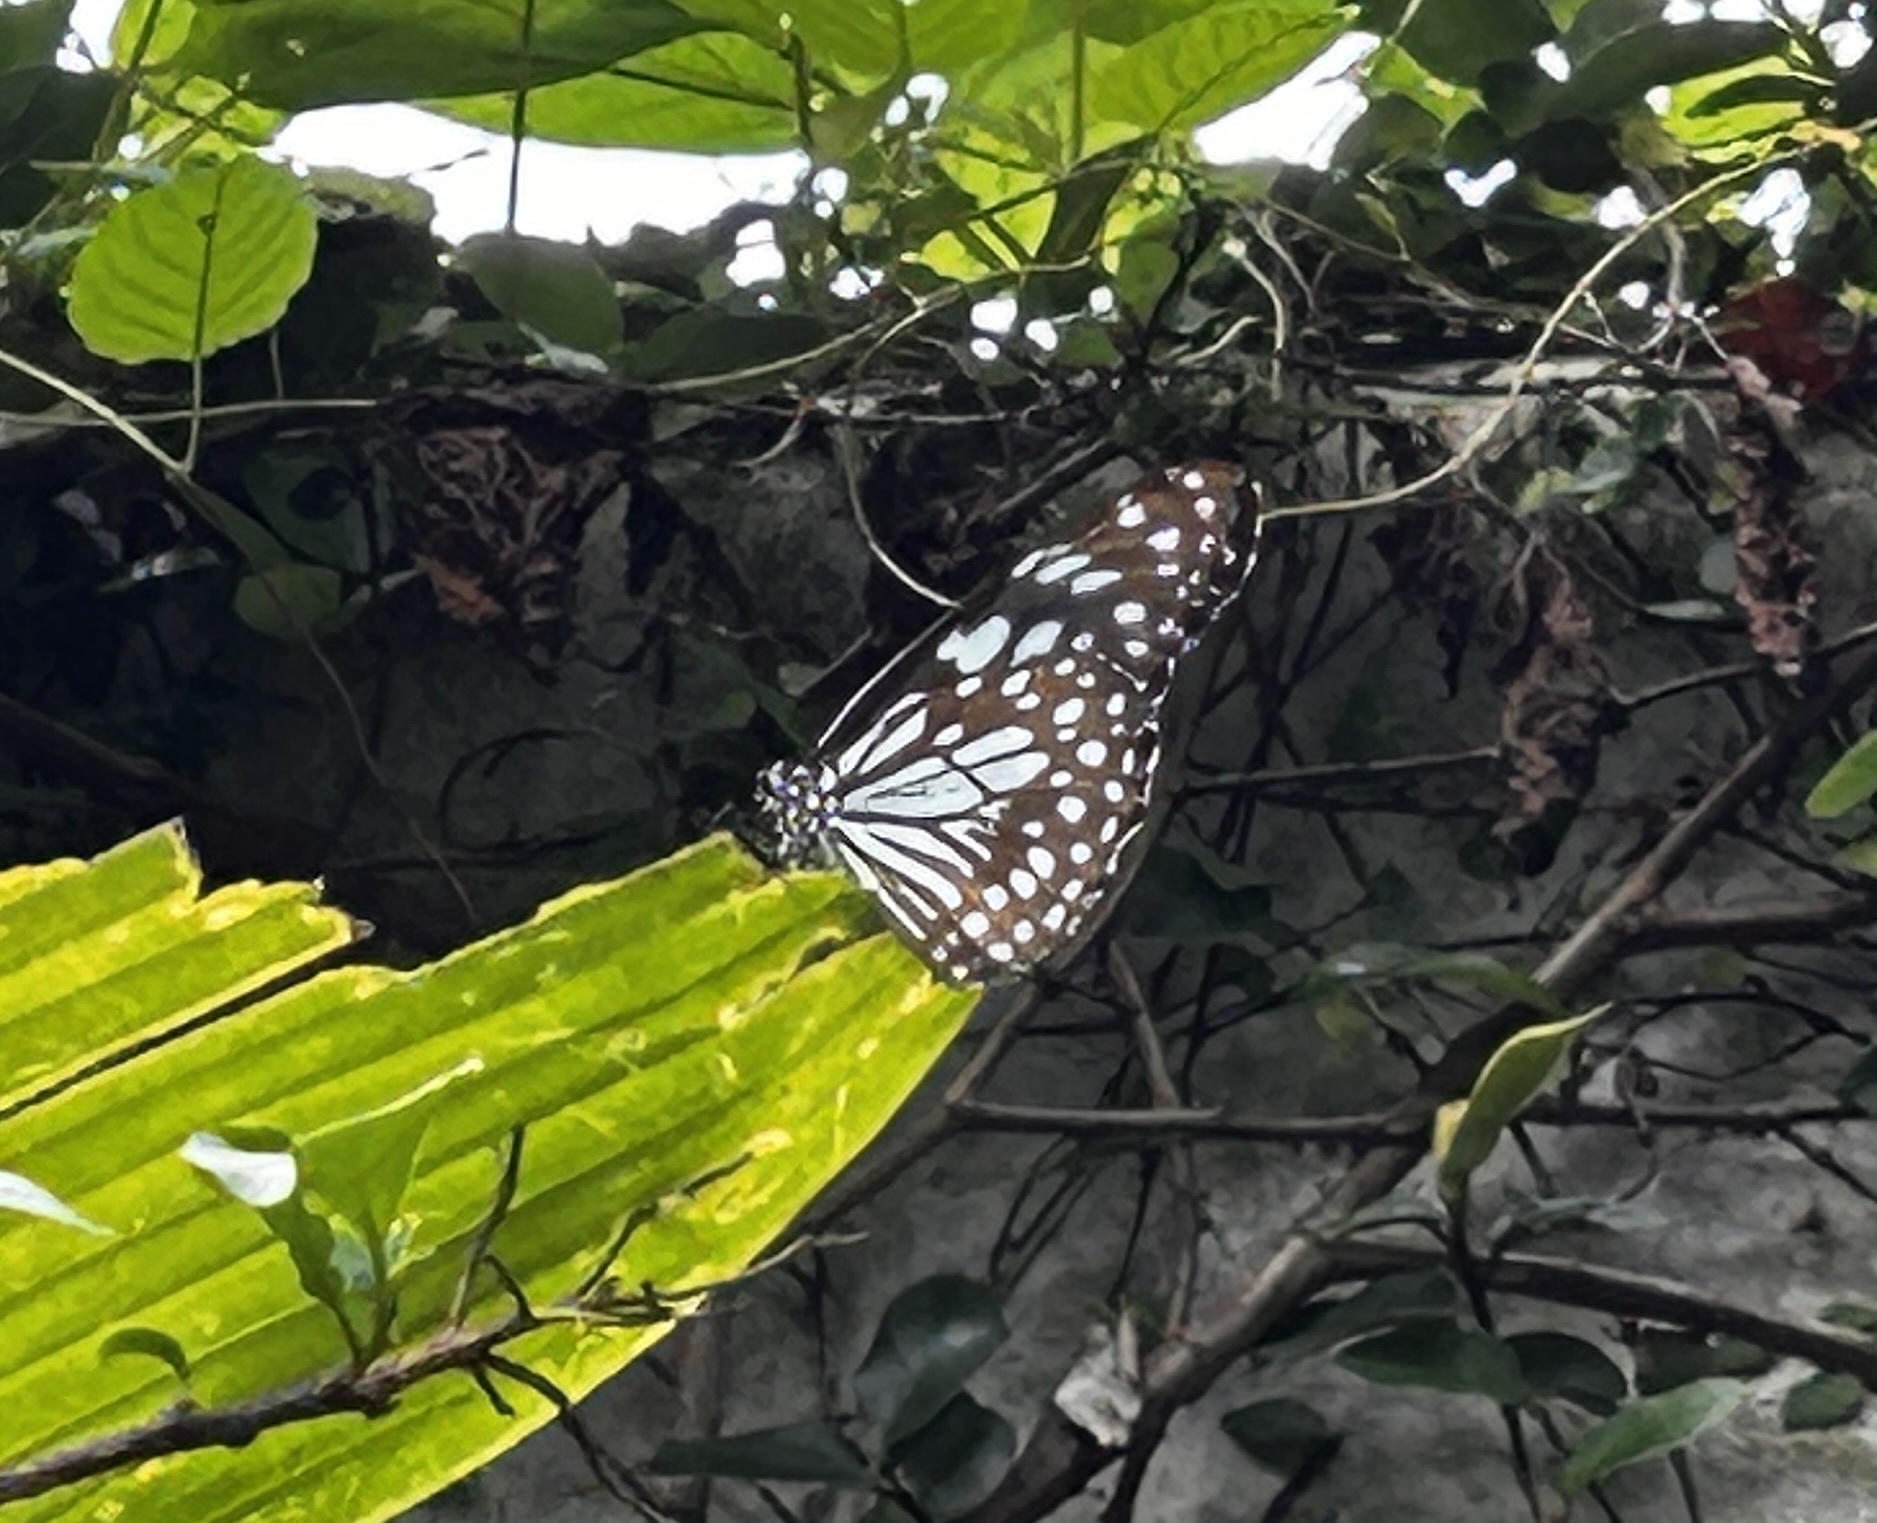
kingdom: Animalia
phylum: Arthropoda
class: Insecta
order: Lepidoptera
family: Nymphalidae
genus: Tirumala
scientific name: Tirumala limniace
